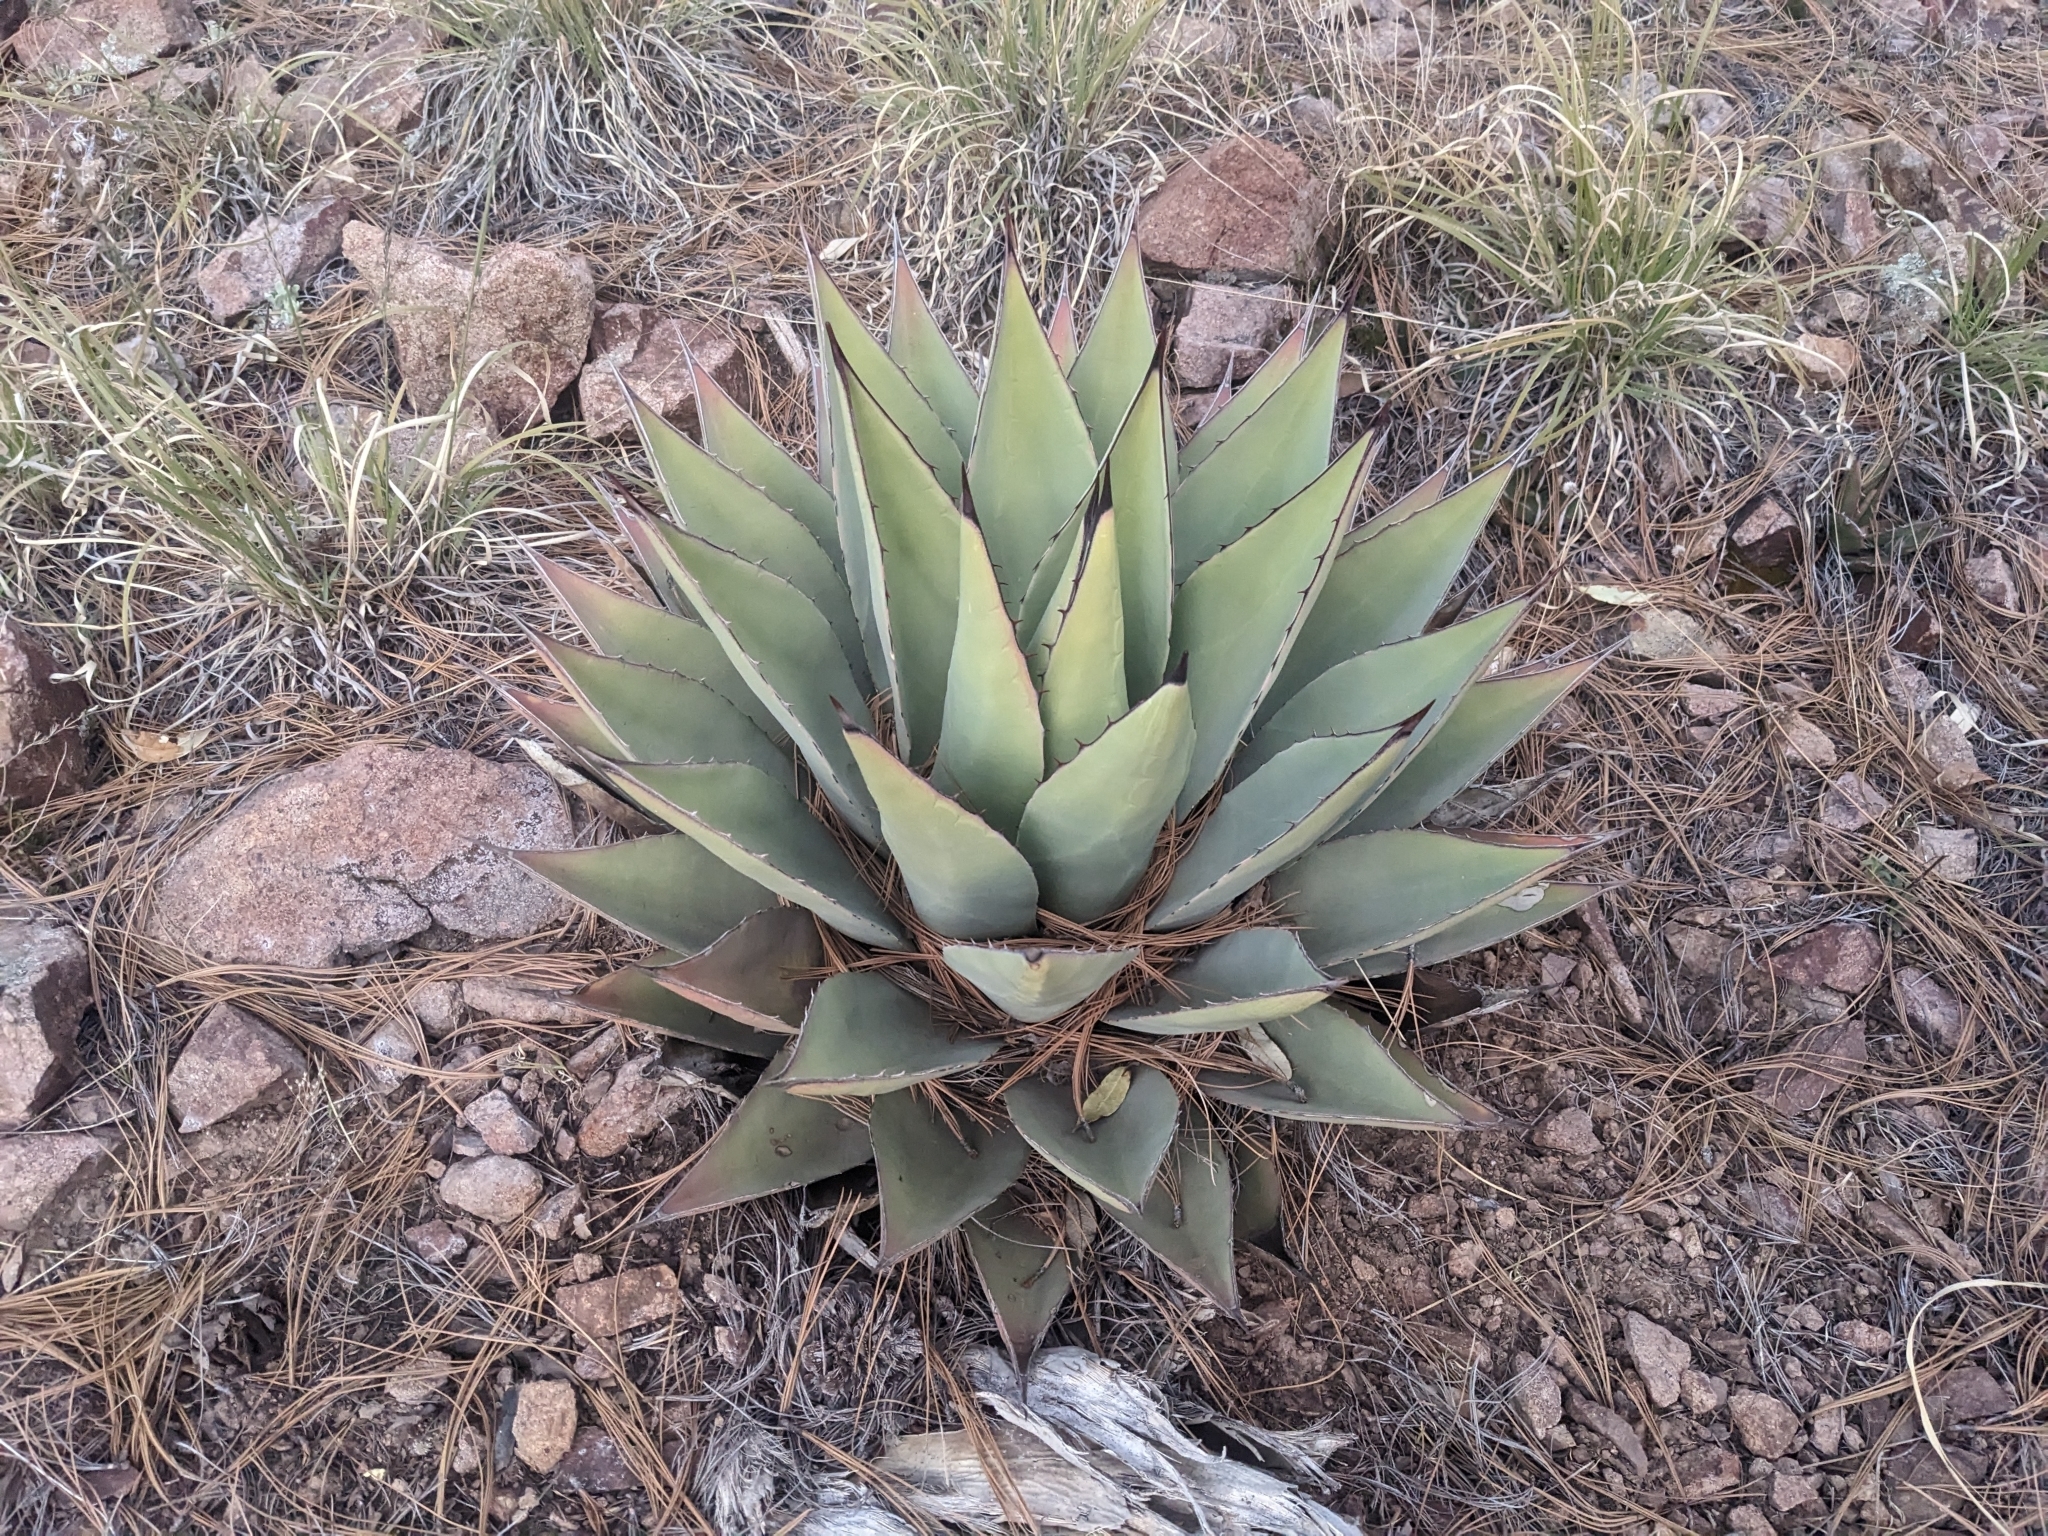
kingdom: Plantae
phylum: Tracheophyta
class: Liliopsida
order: Asparagales
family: Asparagaceae
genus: Agave
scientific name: Agave parryi
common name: Parry's agave
